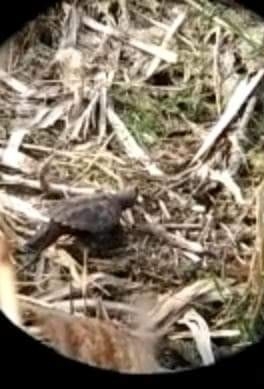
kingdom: Animalia
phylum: Chordata
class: Testudines
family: Chelydridae
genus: Chelydra
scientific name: Chelydra serpentina
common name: Common snapping turtle
